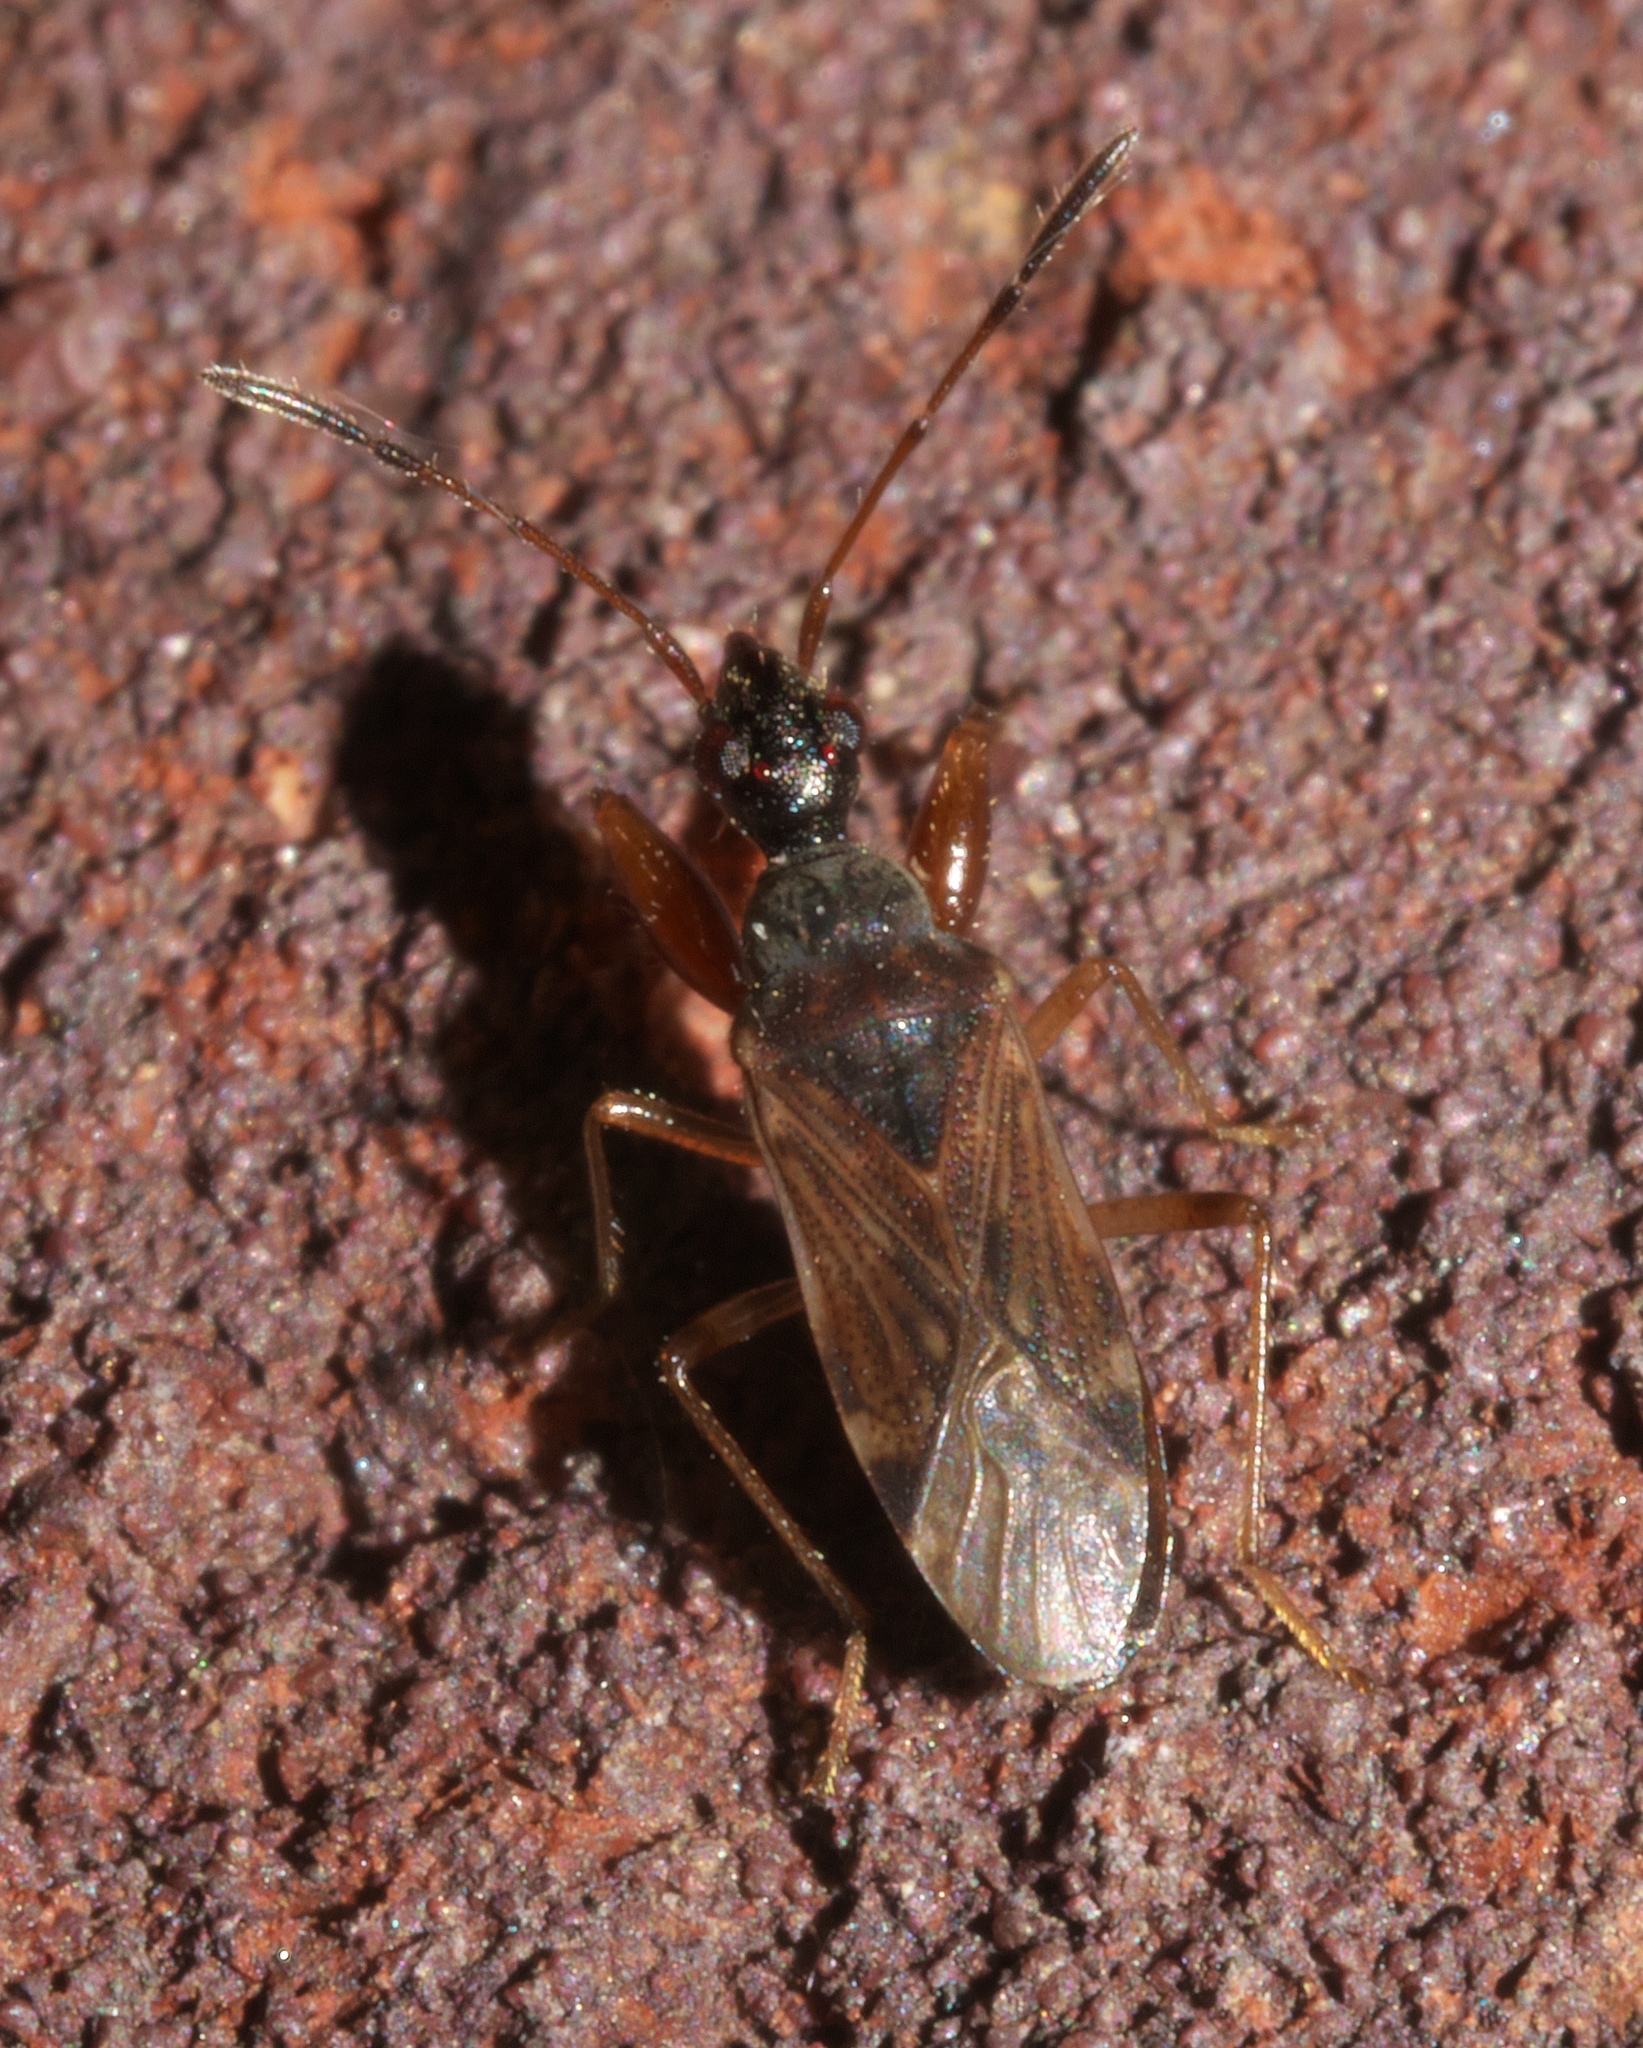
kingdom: Animalia
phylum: Arthropoda
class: Insecta
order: Hemiptera
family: Rhyparochromidae
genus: Heraeus
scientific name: Heraeus plebejus
